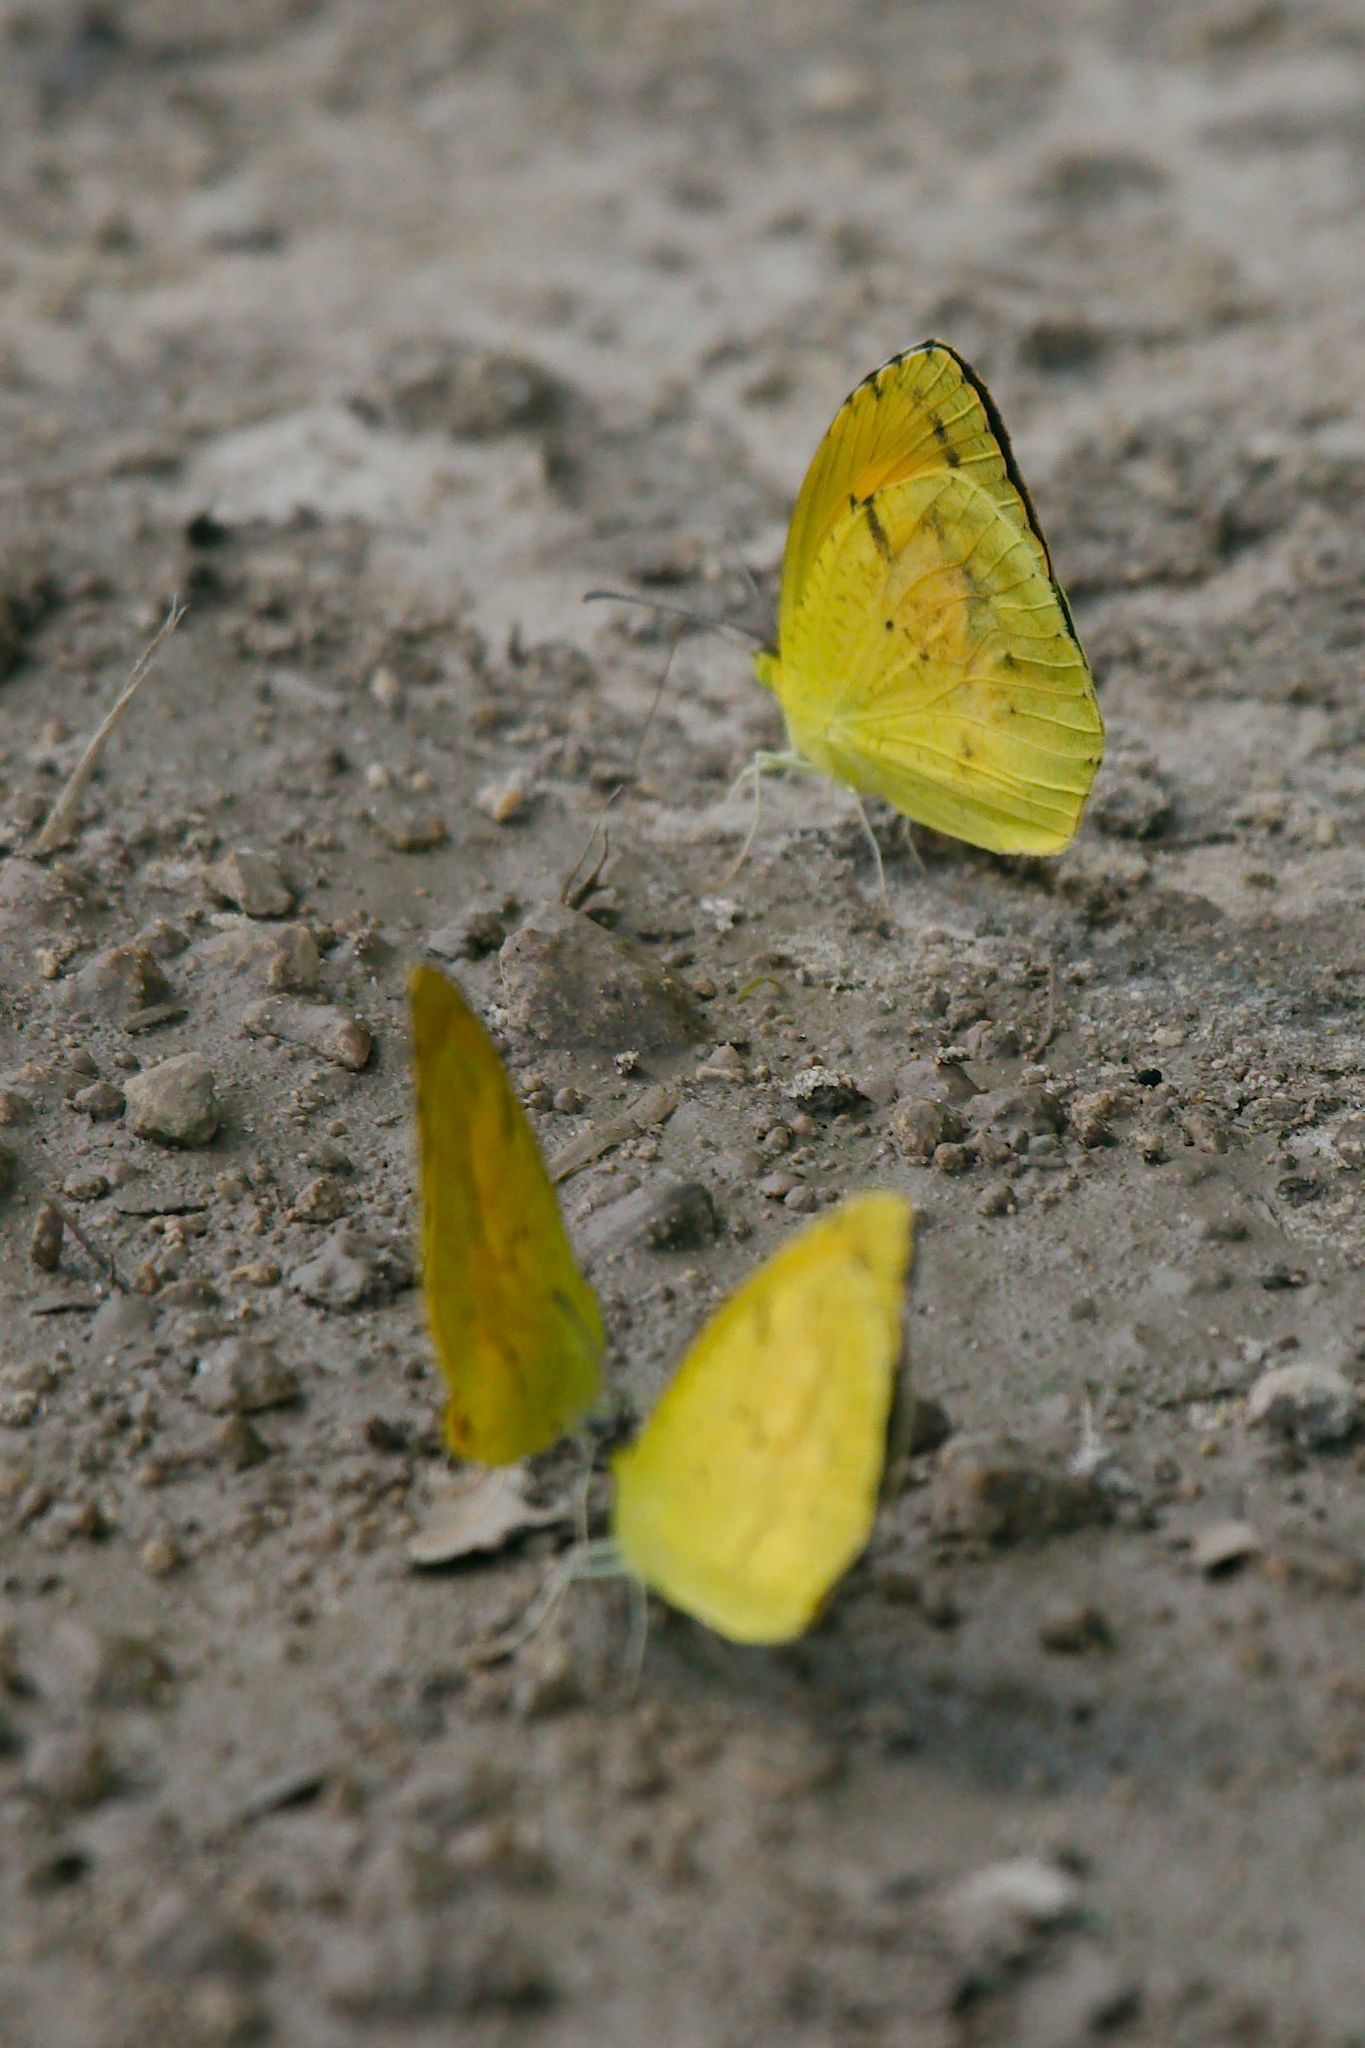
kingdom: Animalia
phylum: Arthropoda
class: Insecta
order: Lepidoptera
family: Pieridae
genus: Abaeis
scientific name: Abaeis nicippe
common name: Sleepy orange
